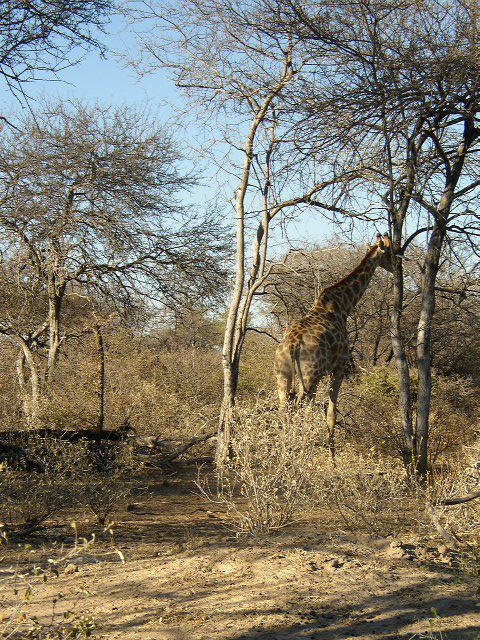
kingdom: Animalia
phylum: Chordata
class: Mammalia
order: Artiodactyla
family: Giraffidae
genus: Giraffa
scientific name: Giraffa giraffa
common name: Southern giraffe
